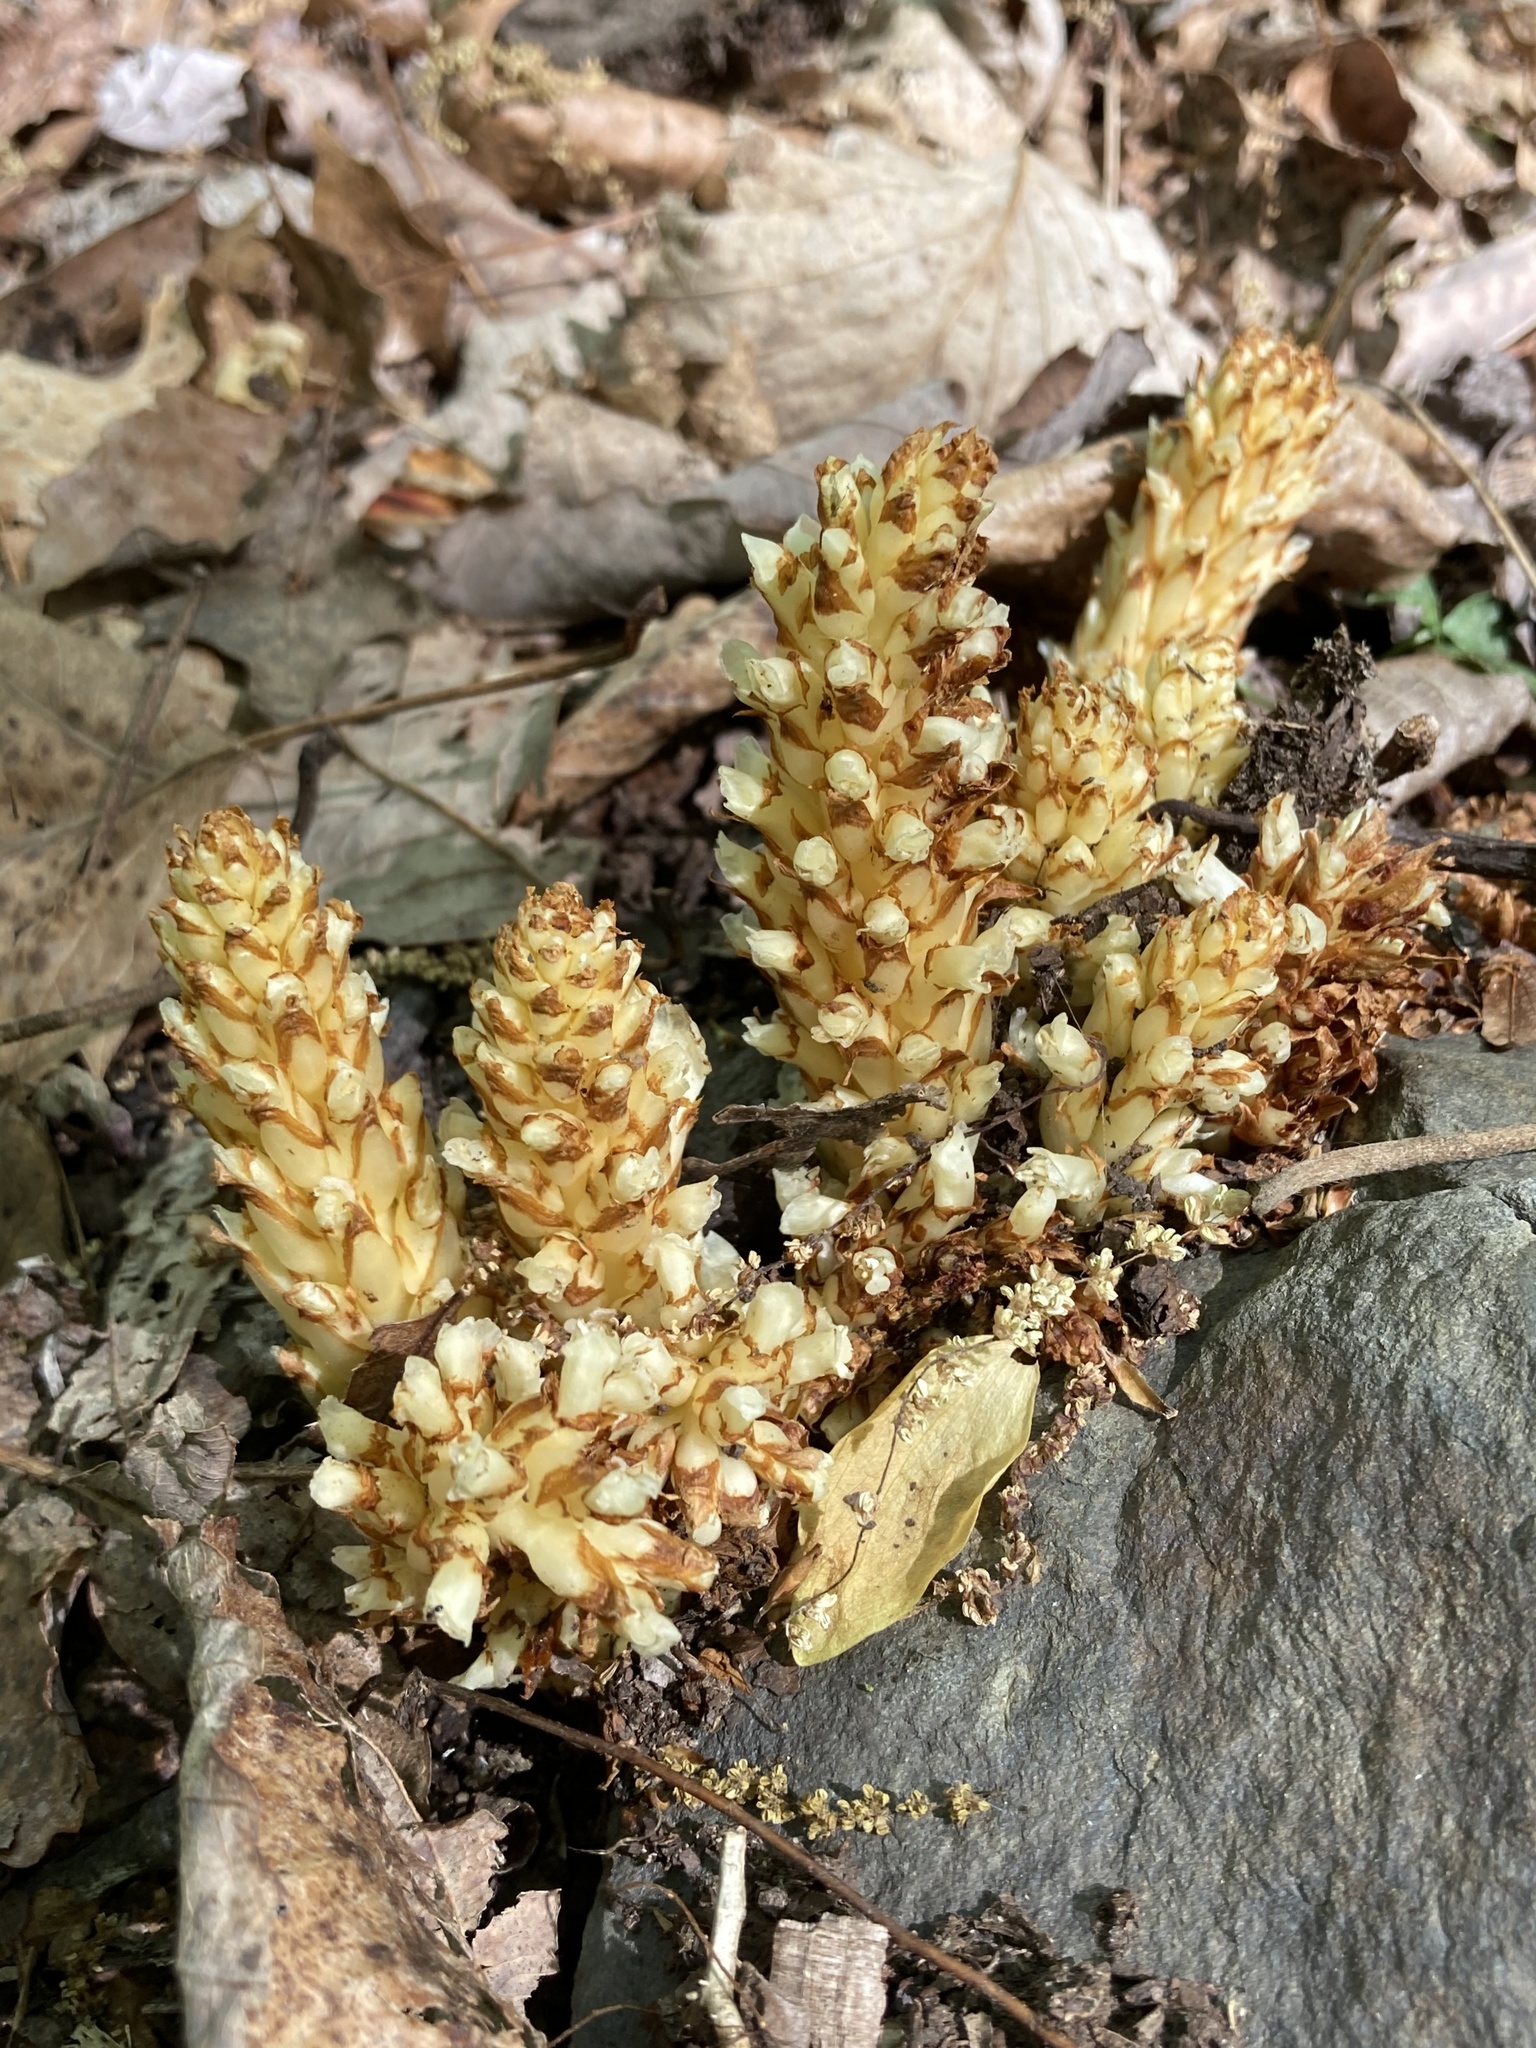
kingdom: Plantae
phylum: Tracheophyta
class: Magnoliopsida
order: Lamiales
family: Orobanchaceae
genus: Conopholis
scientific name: Conopholis americana
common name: American cancer-root
